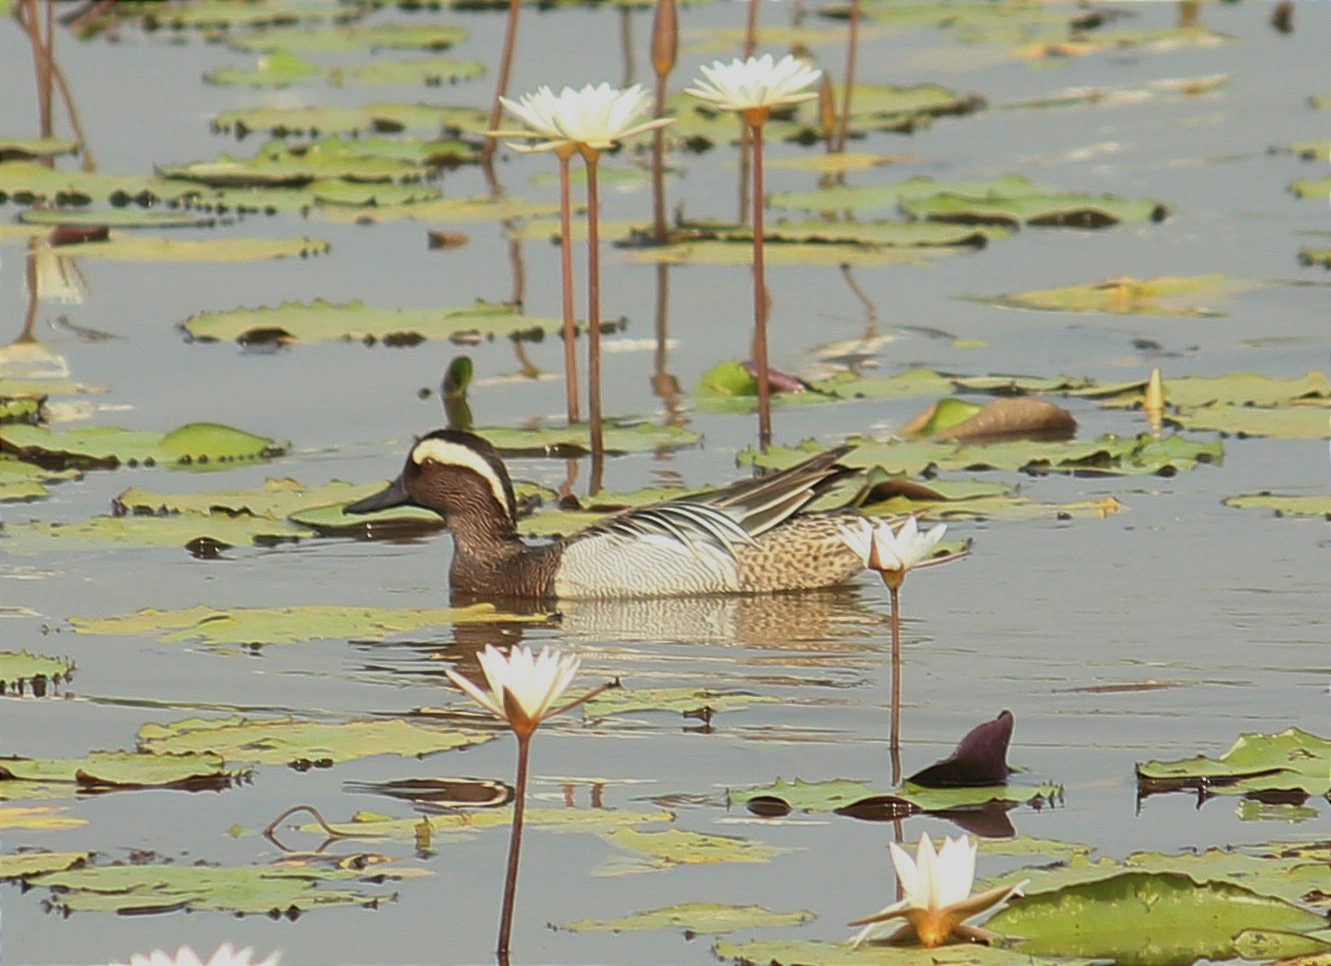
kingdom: Animalia
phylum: Chordata
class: Aves
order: Anseriformes
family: Anatidae
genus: Spatula
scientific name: Spatula querquedula
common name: Garganey
